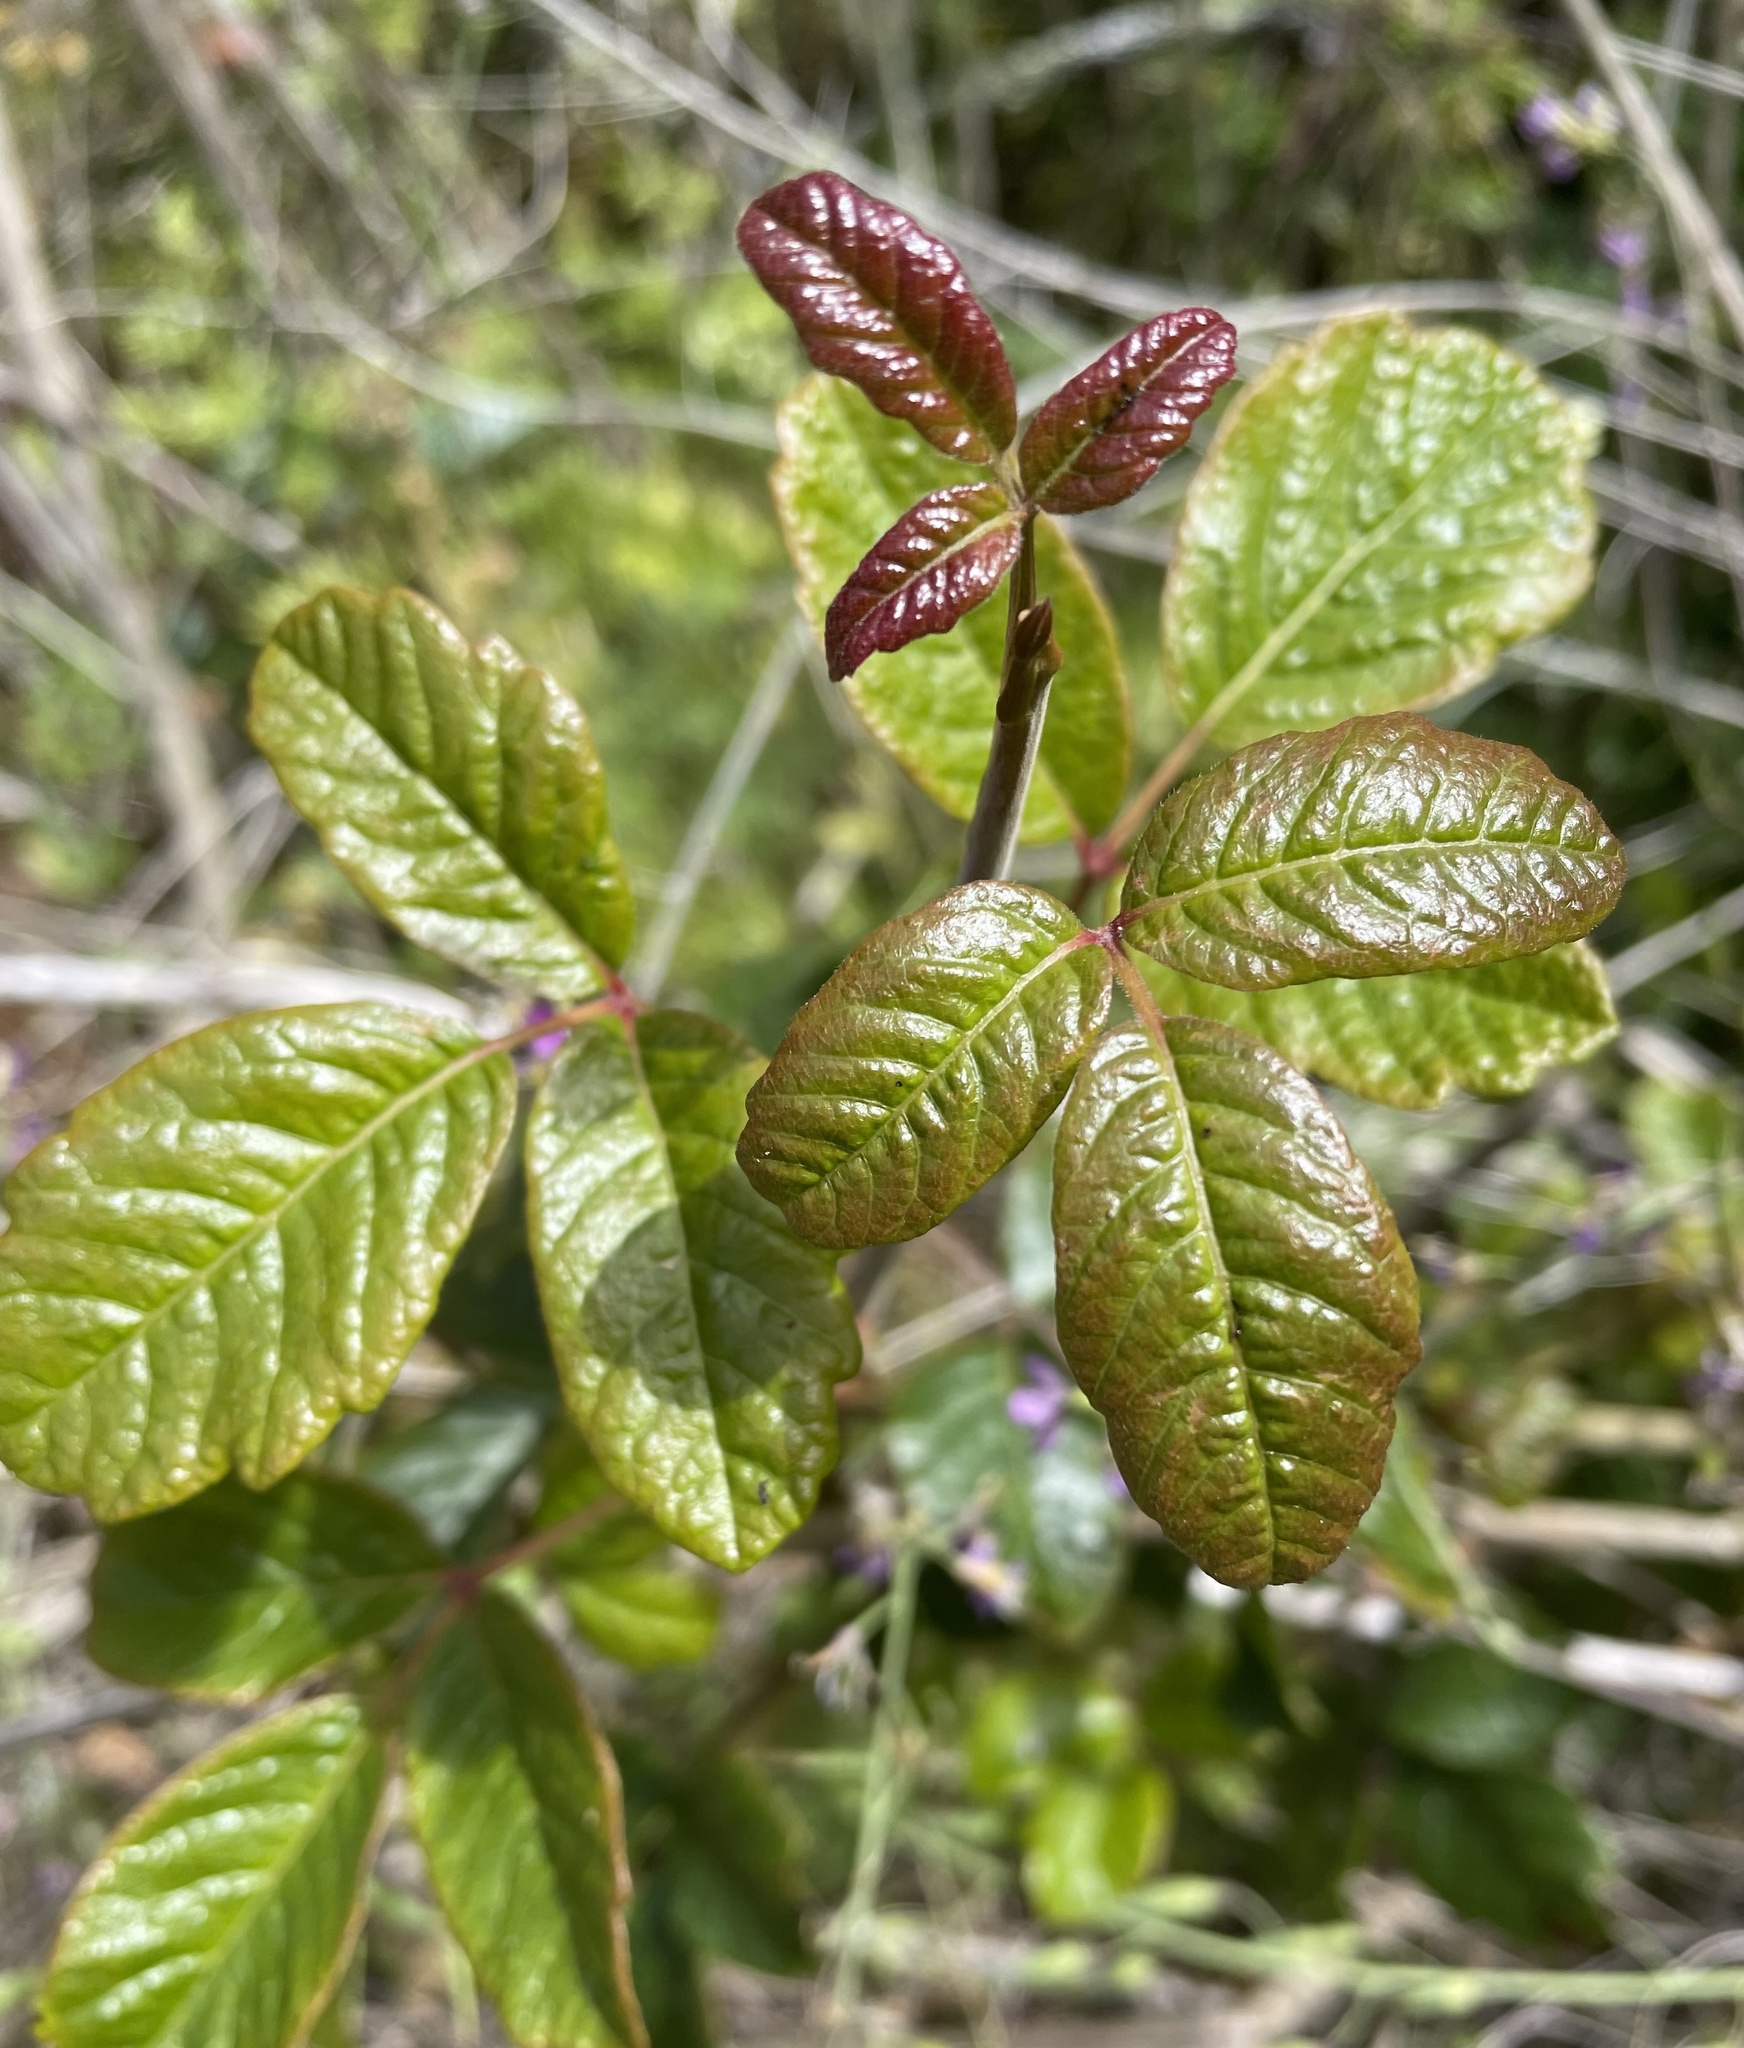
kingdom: Plantae
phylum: Tracheophyta
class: Magnoliopsida
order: Sapindales
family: Anacardiaceae
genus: Toxicodendron
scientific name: Toxicodendron diversilobum
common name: Pacific poison-oak
